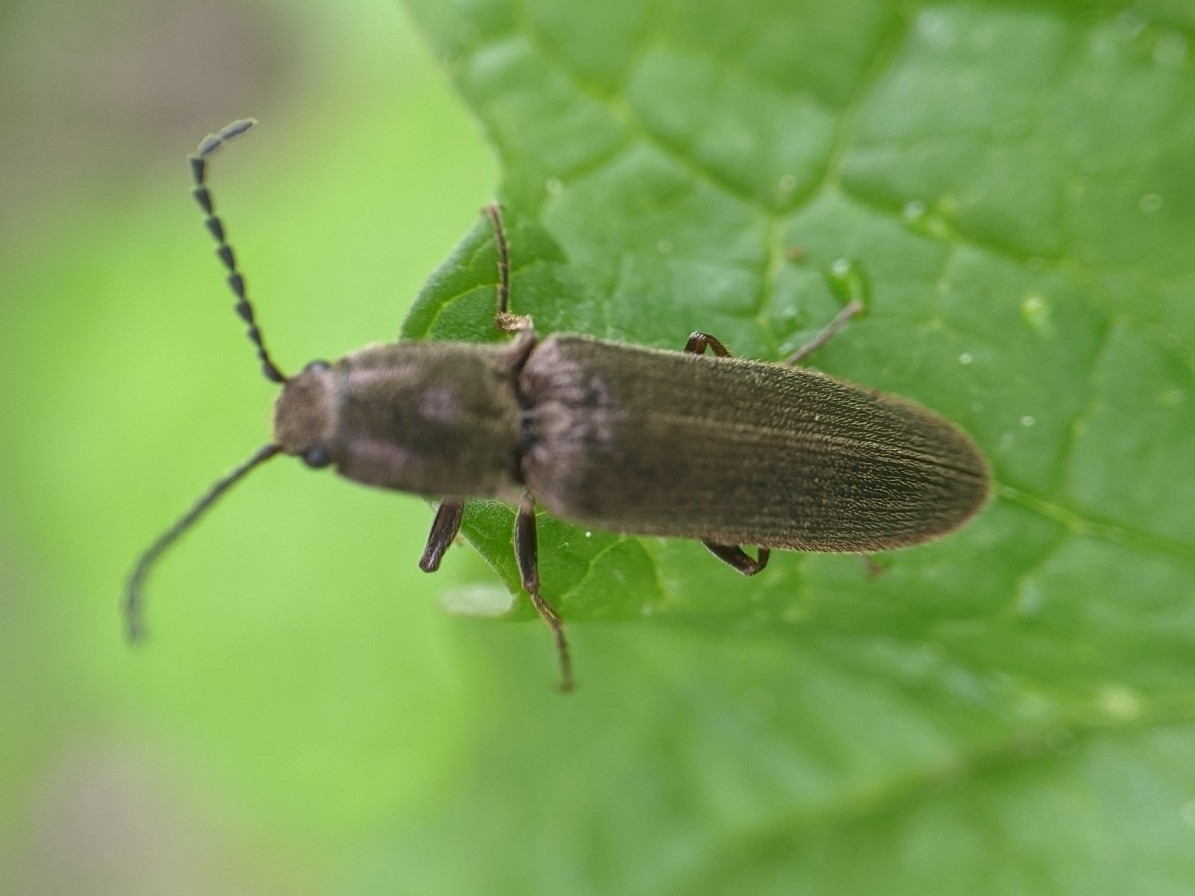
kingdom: Animalia
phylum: Arthropoda
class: Insecta
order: Coleoptera
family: Elateridae
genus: Sylvanelater
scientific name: Sylvanelater cylindriformis
